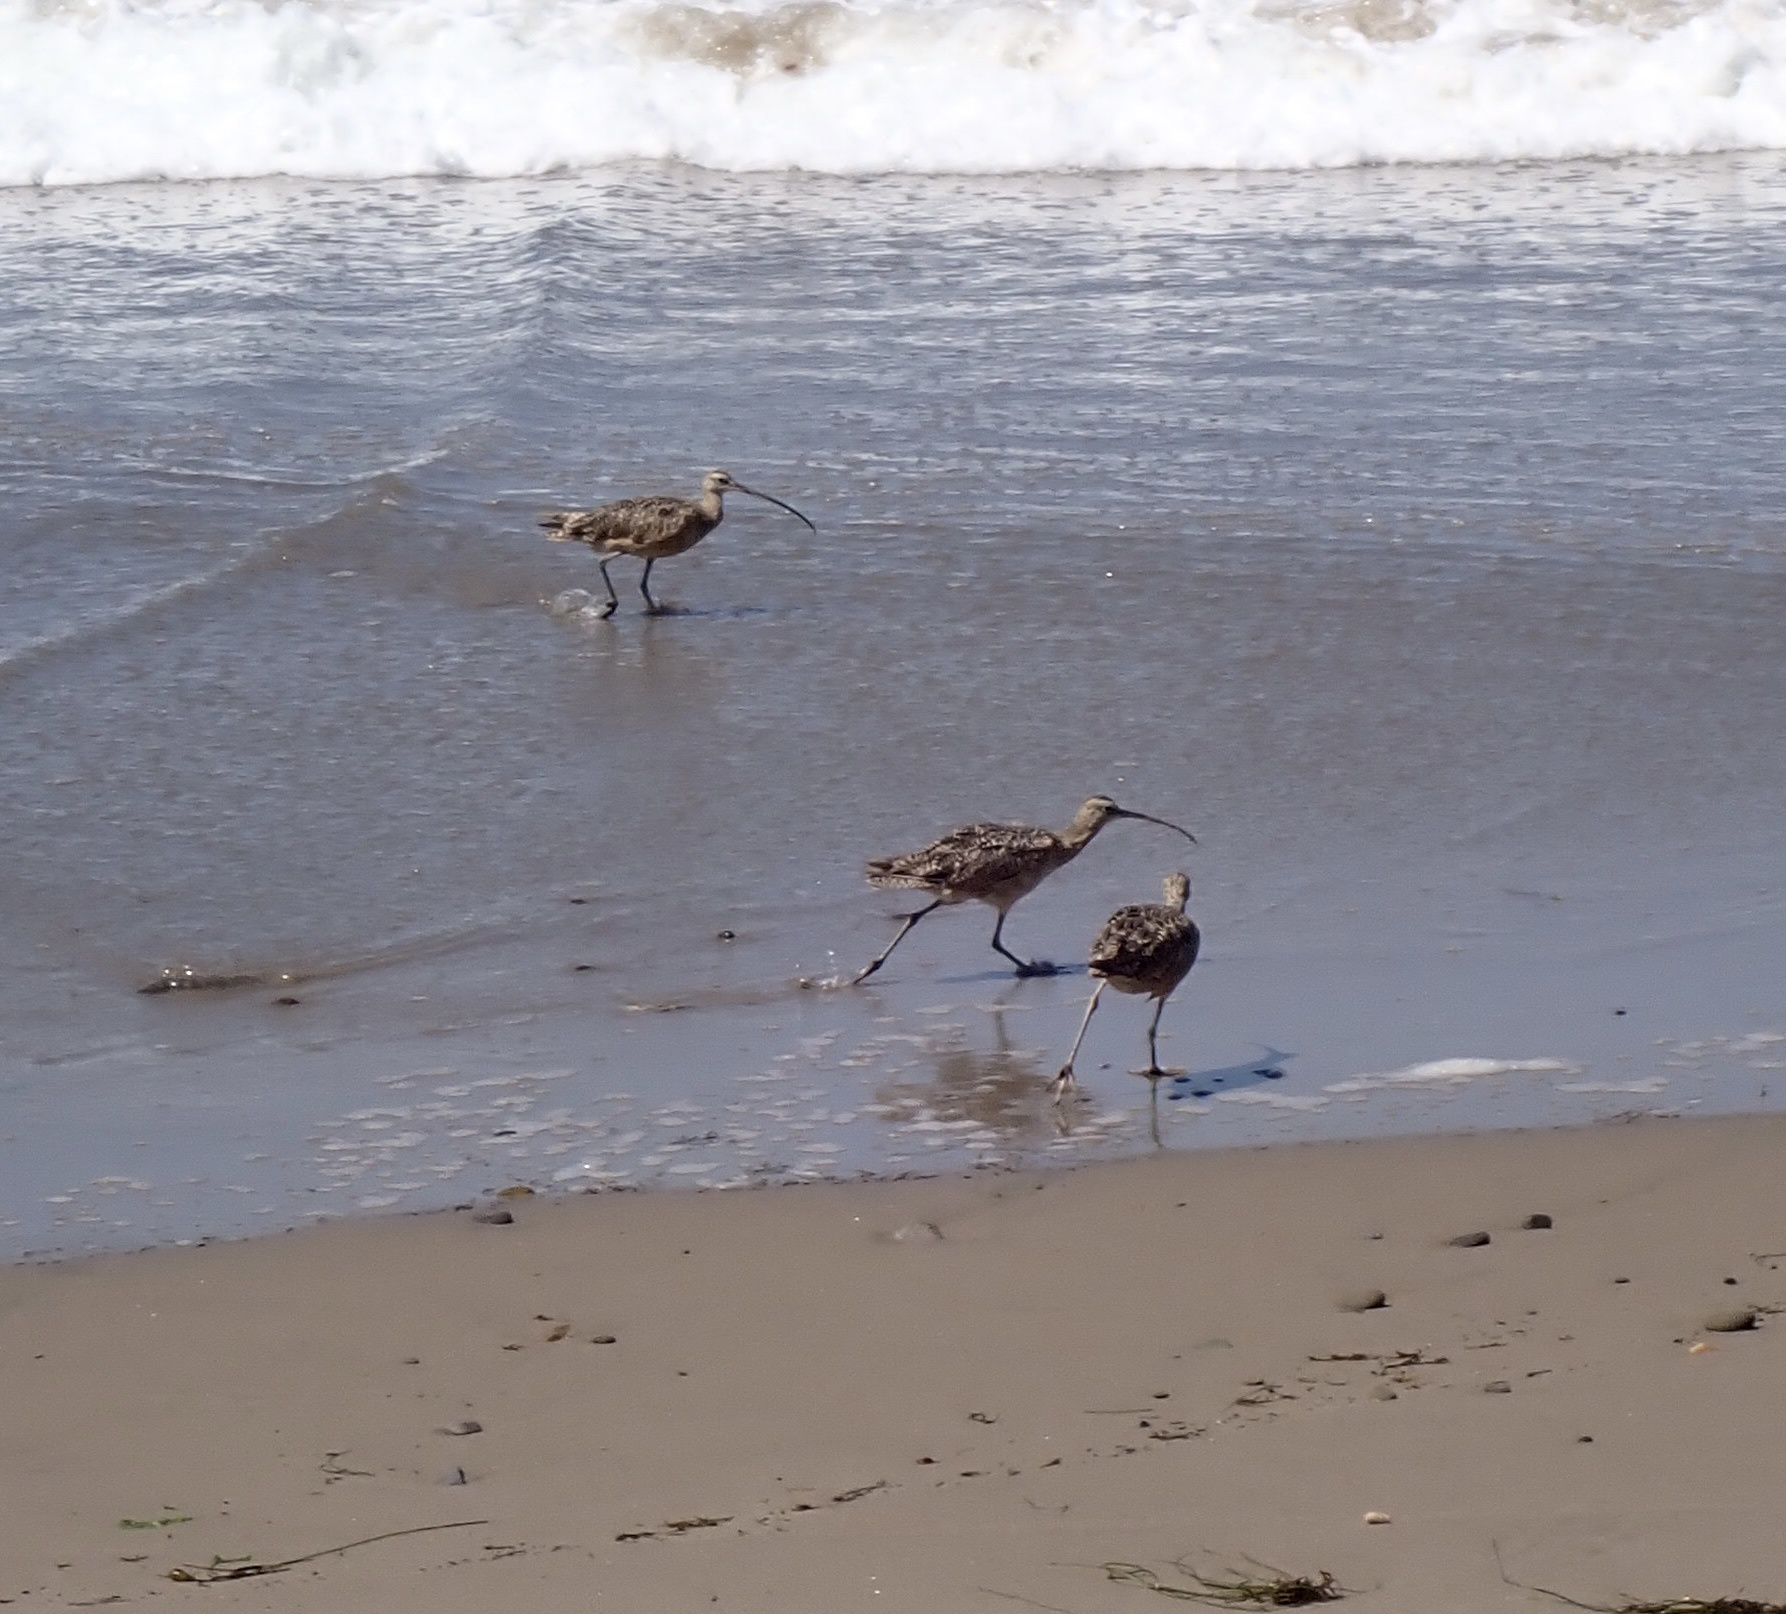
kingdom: Animalia
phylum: Chordata
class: Aves
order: Charadriiformes
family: Scolopacidae
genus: Numenius
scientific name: Numenius americanus
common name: Long-billed curlew
